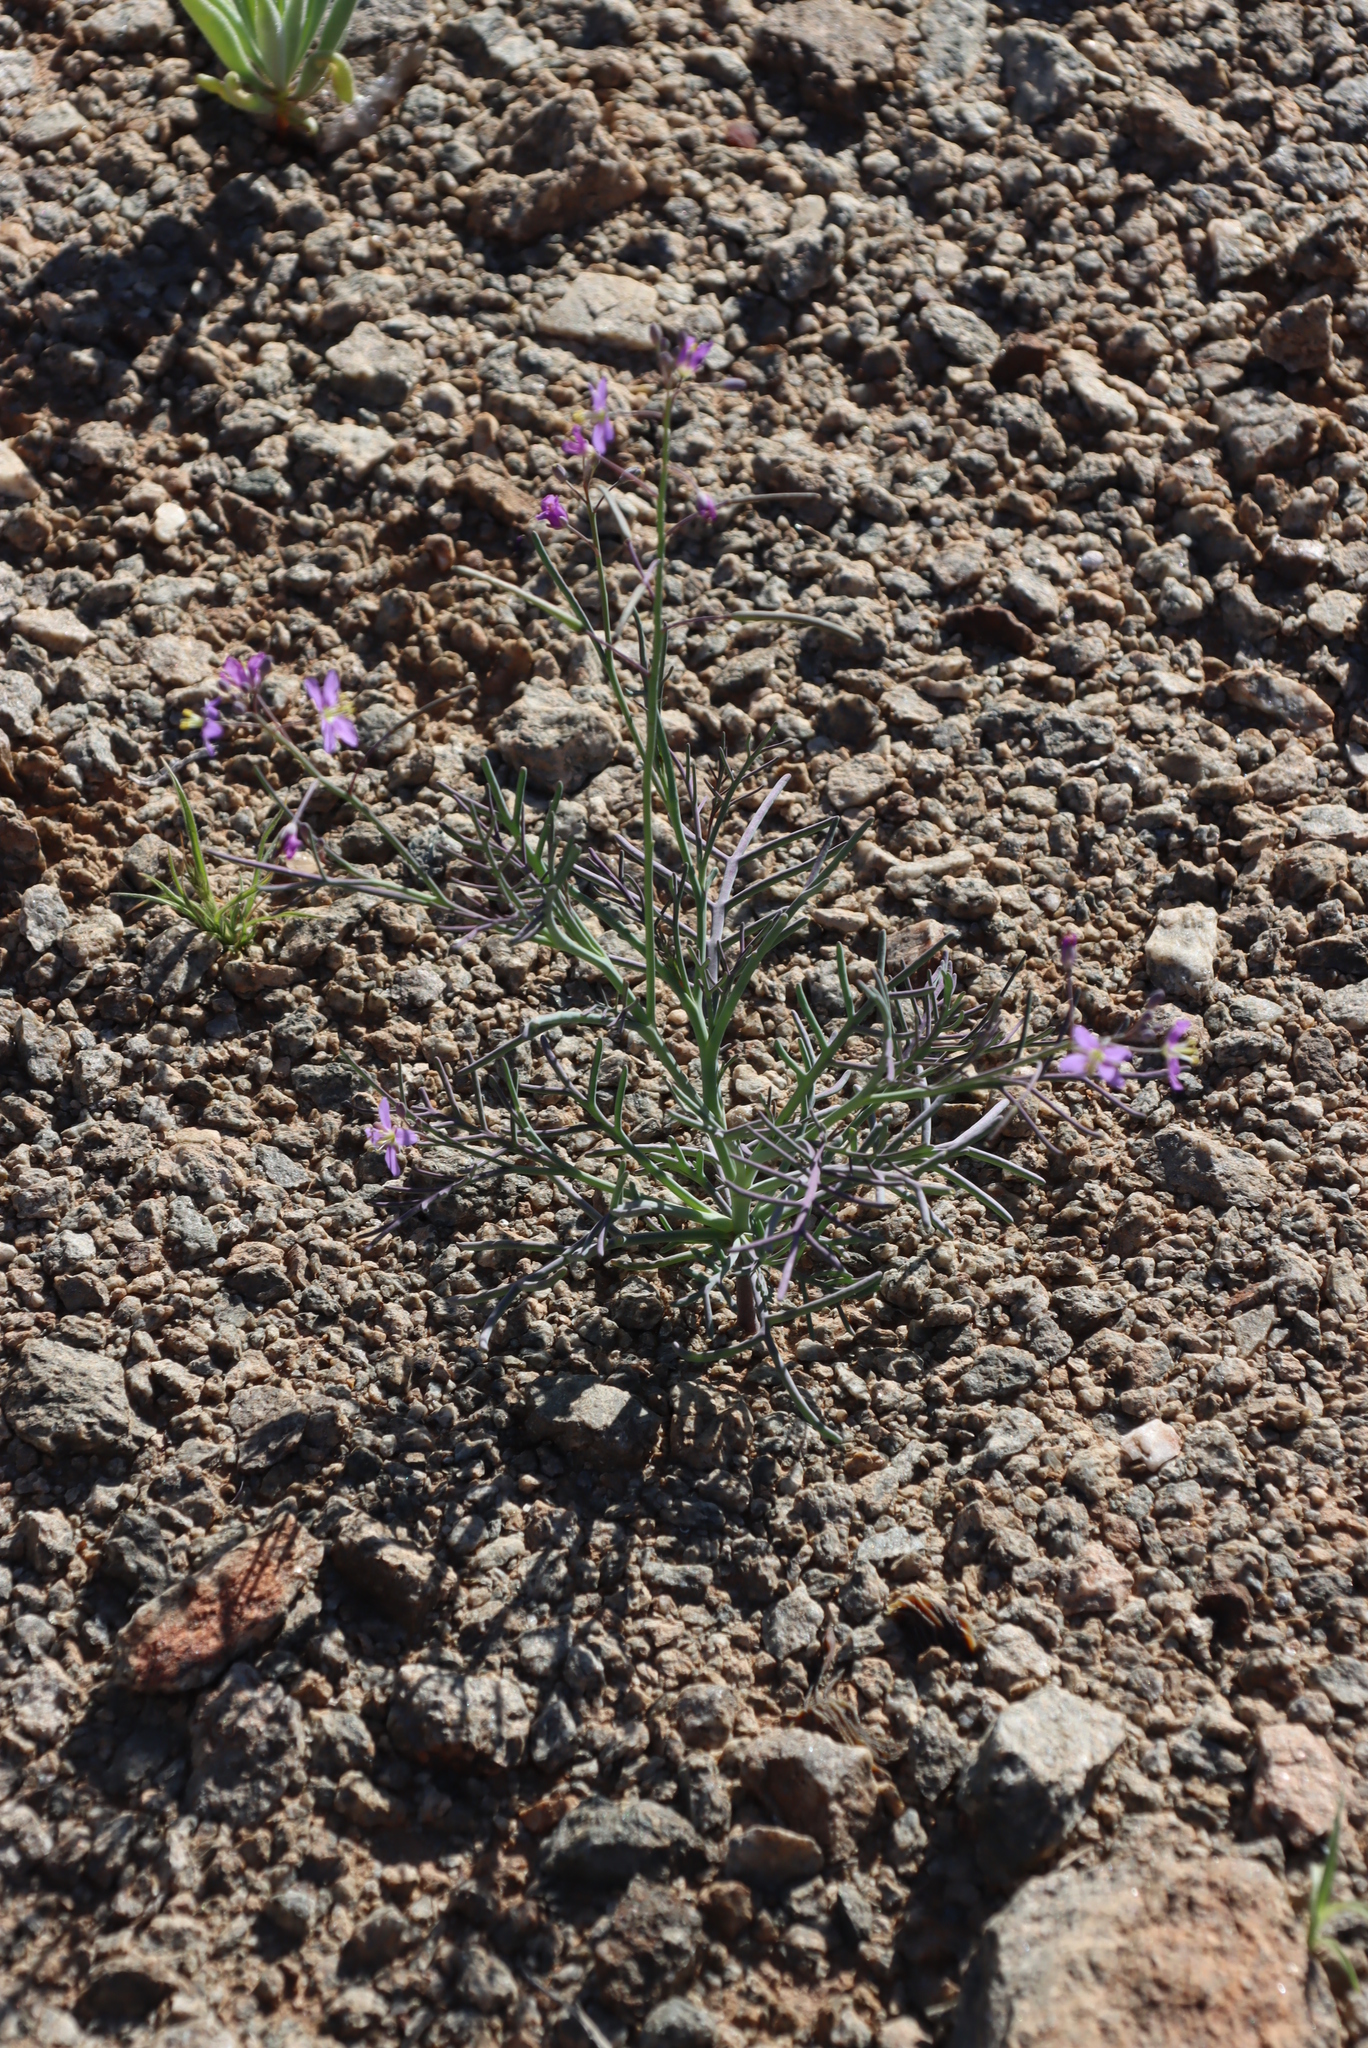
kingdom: Plantae
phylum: Tracheophyta
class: Magnoliopsida
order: Brassicales
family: Brassicaceae
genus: Heliophila
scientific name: Heliophila deserticola
